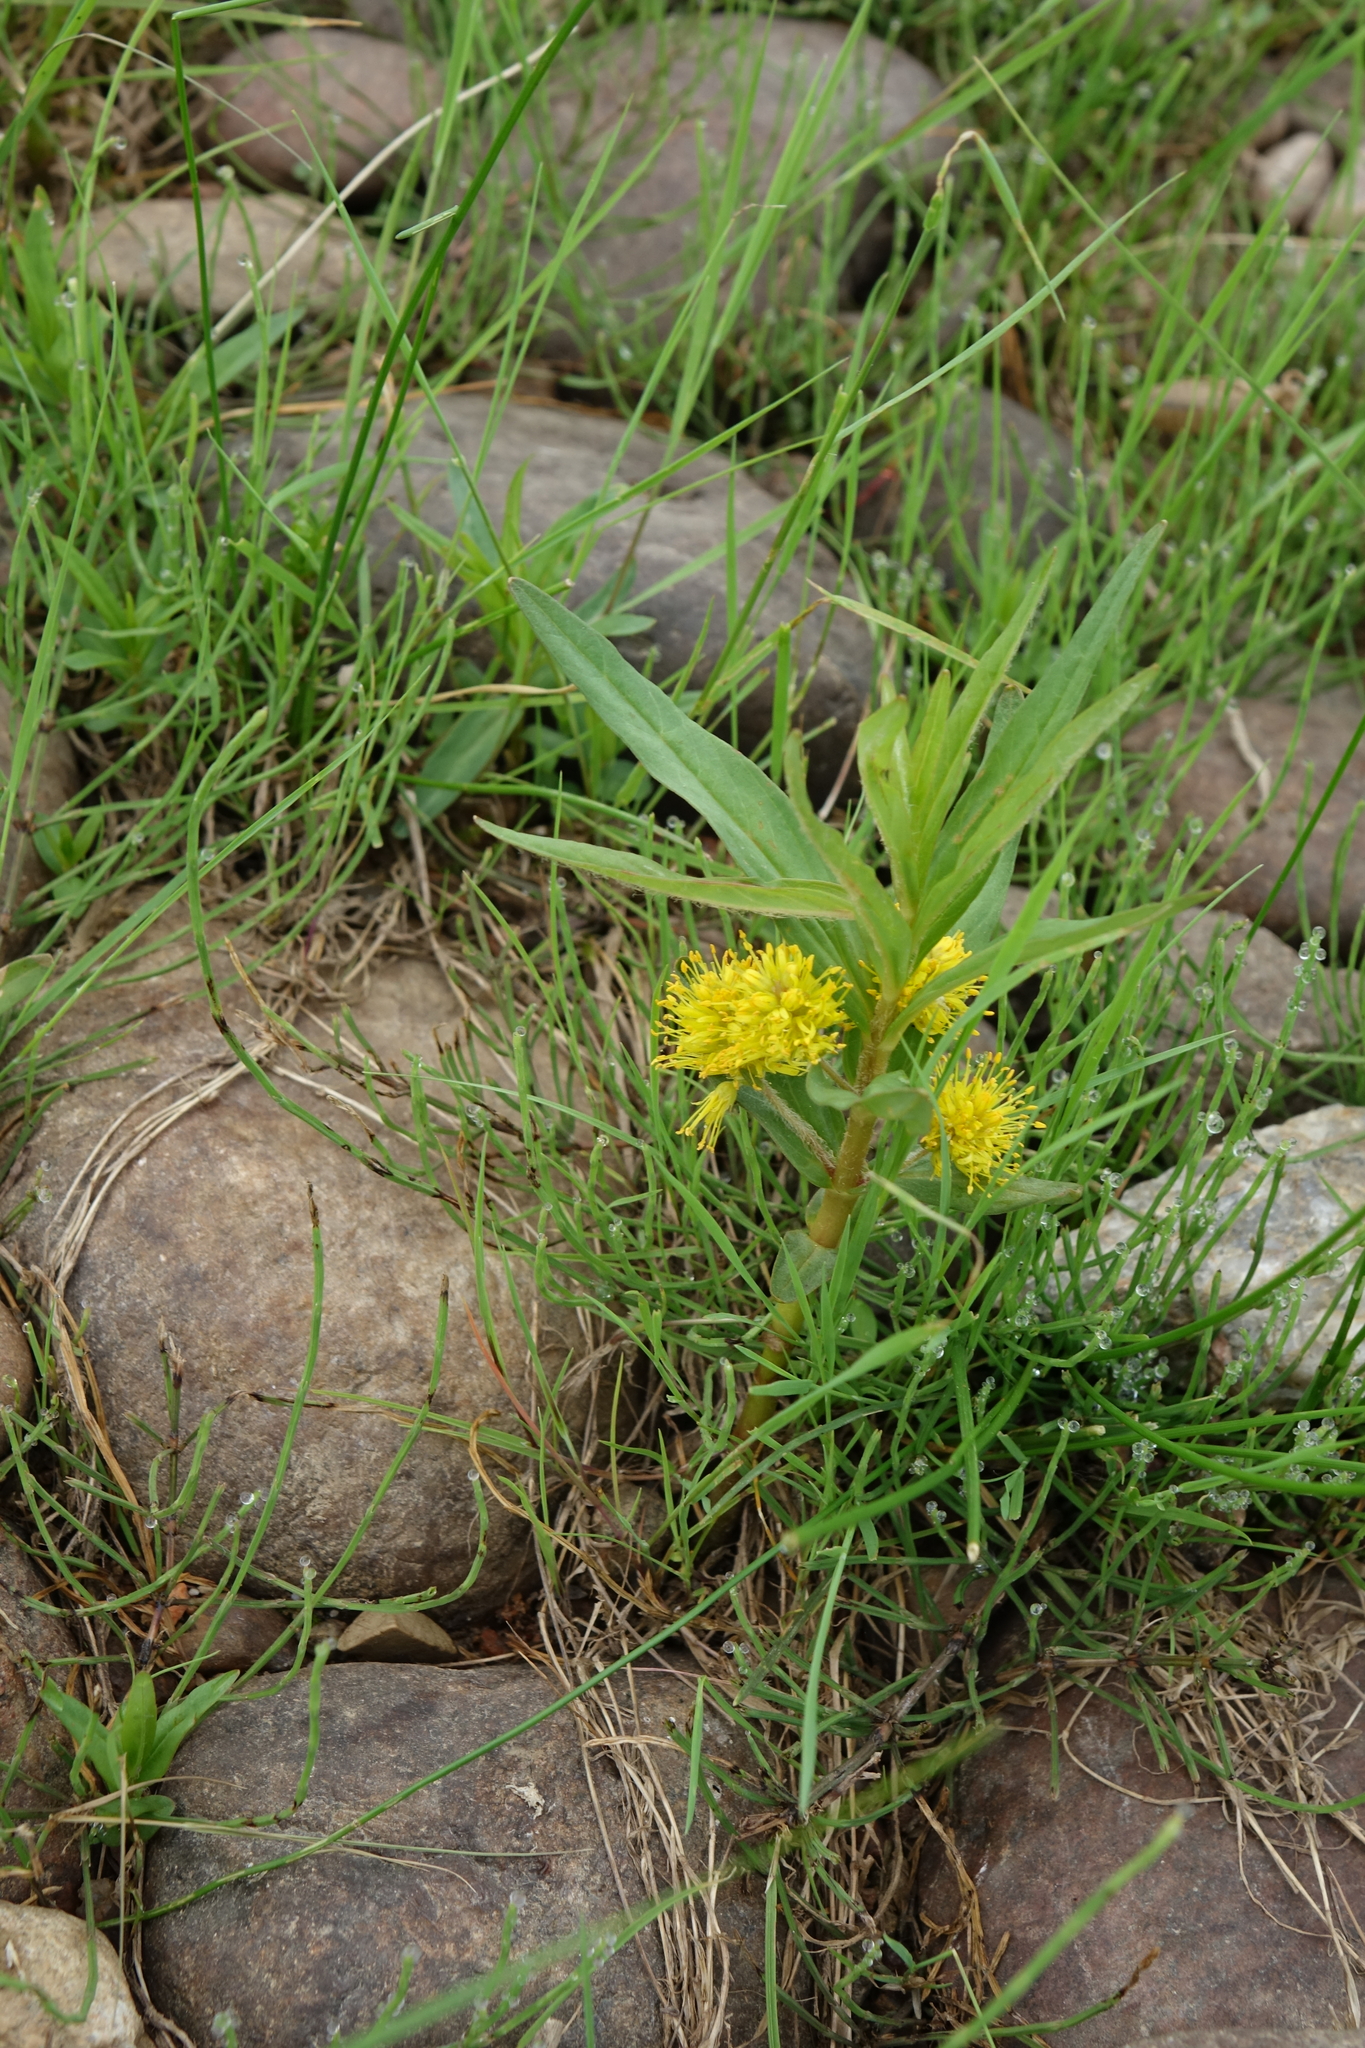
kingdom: Plantae
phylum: Tracheophyta
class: Magnoliopsida
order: Ericales
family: Primulaceae
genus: Lysimachia
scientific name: Lysimachia thyrsiflora
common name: Tufted loosestrife
